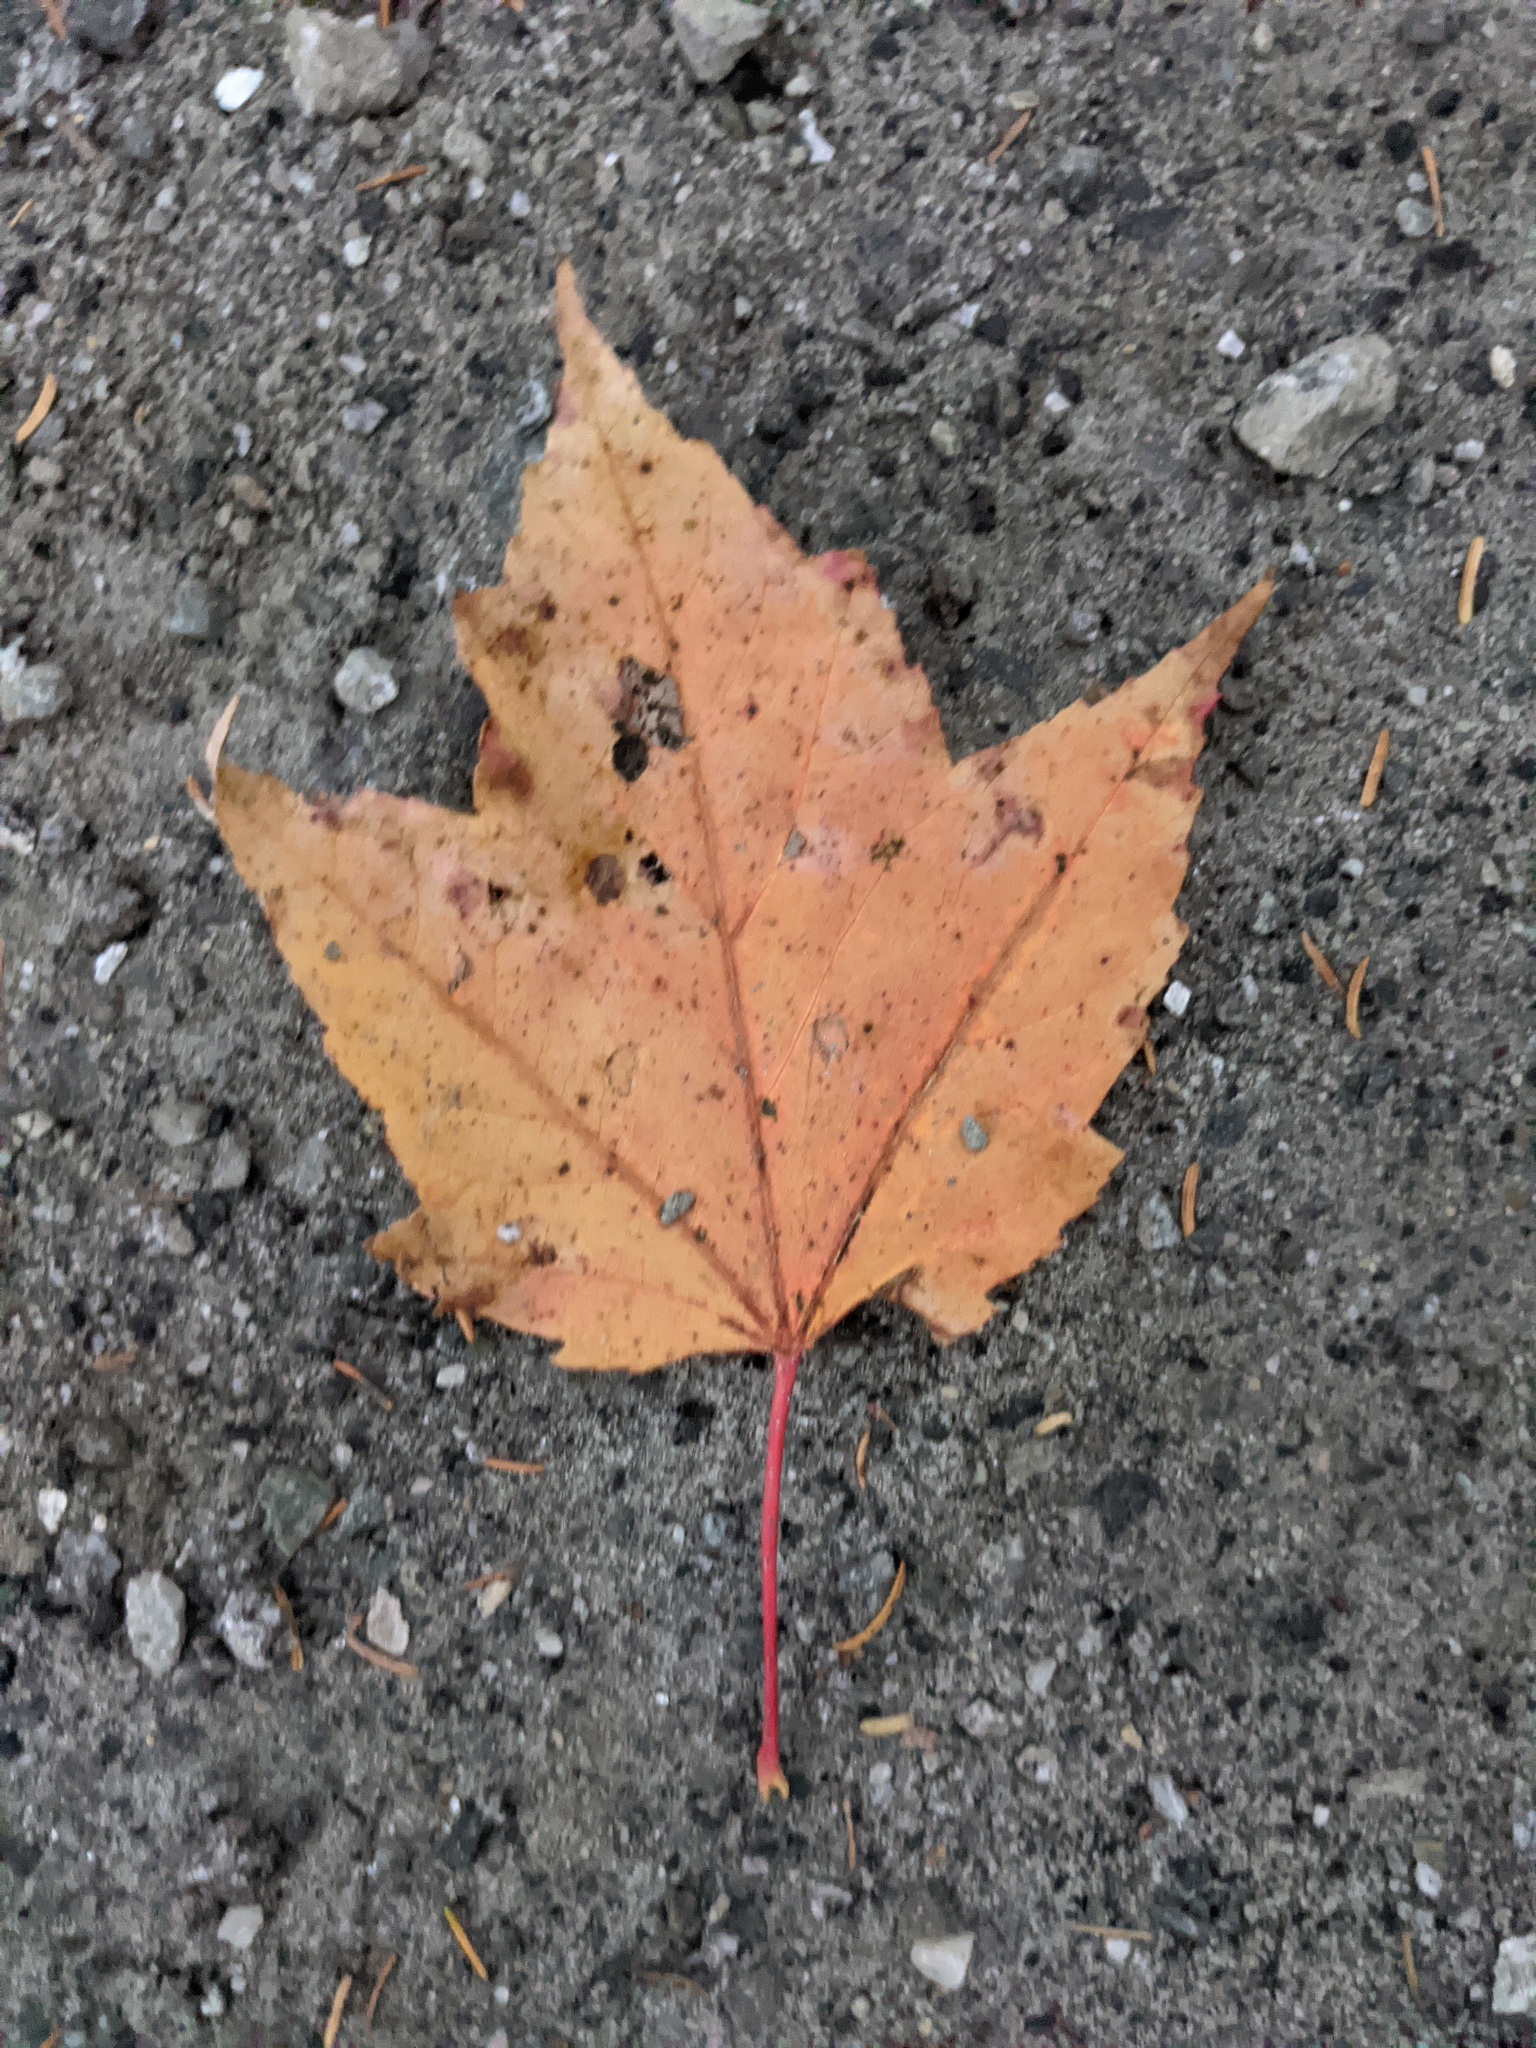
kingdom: Plantae
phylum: Tracheophyta
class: Magnoliopsida
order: Sapindales
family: Sapindaceae
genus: Acer
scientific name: Acer rubrum
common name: Red maple
